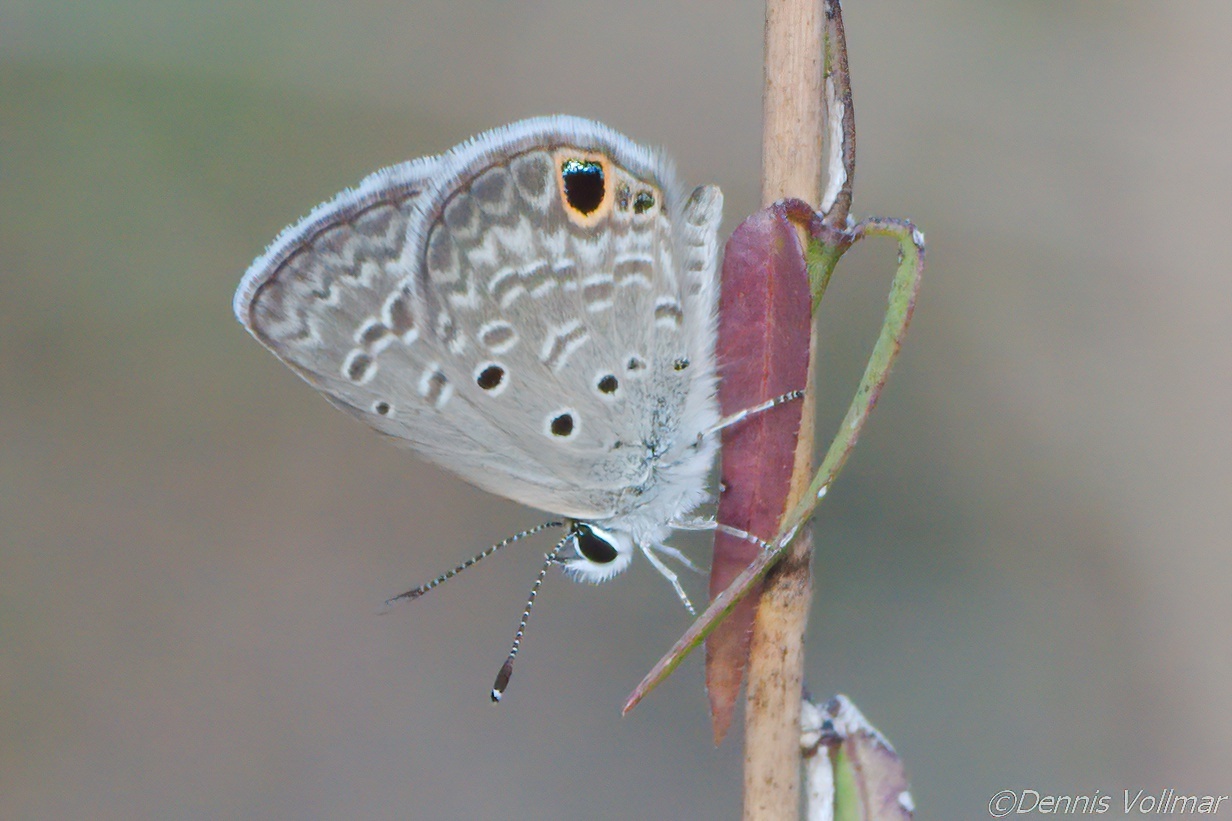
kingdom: Animalia
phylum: Arthropoda
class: Insecta
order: Lepidoptera
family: Lycaenidae
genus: Hemiargus
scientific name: Hemiargus ceraunus
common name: Ceraunus blue
